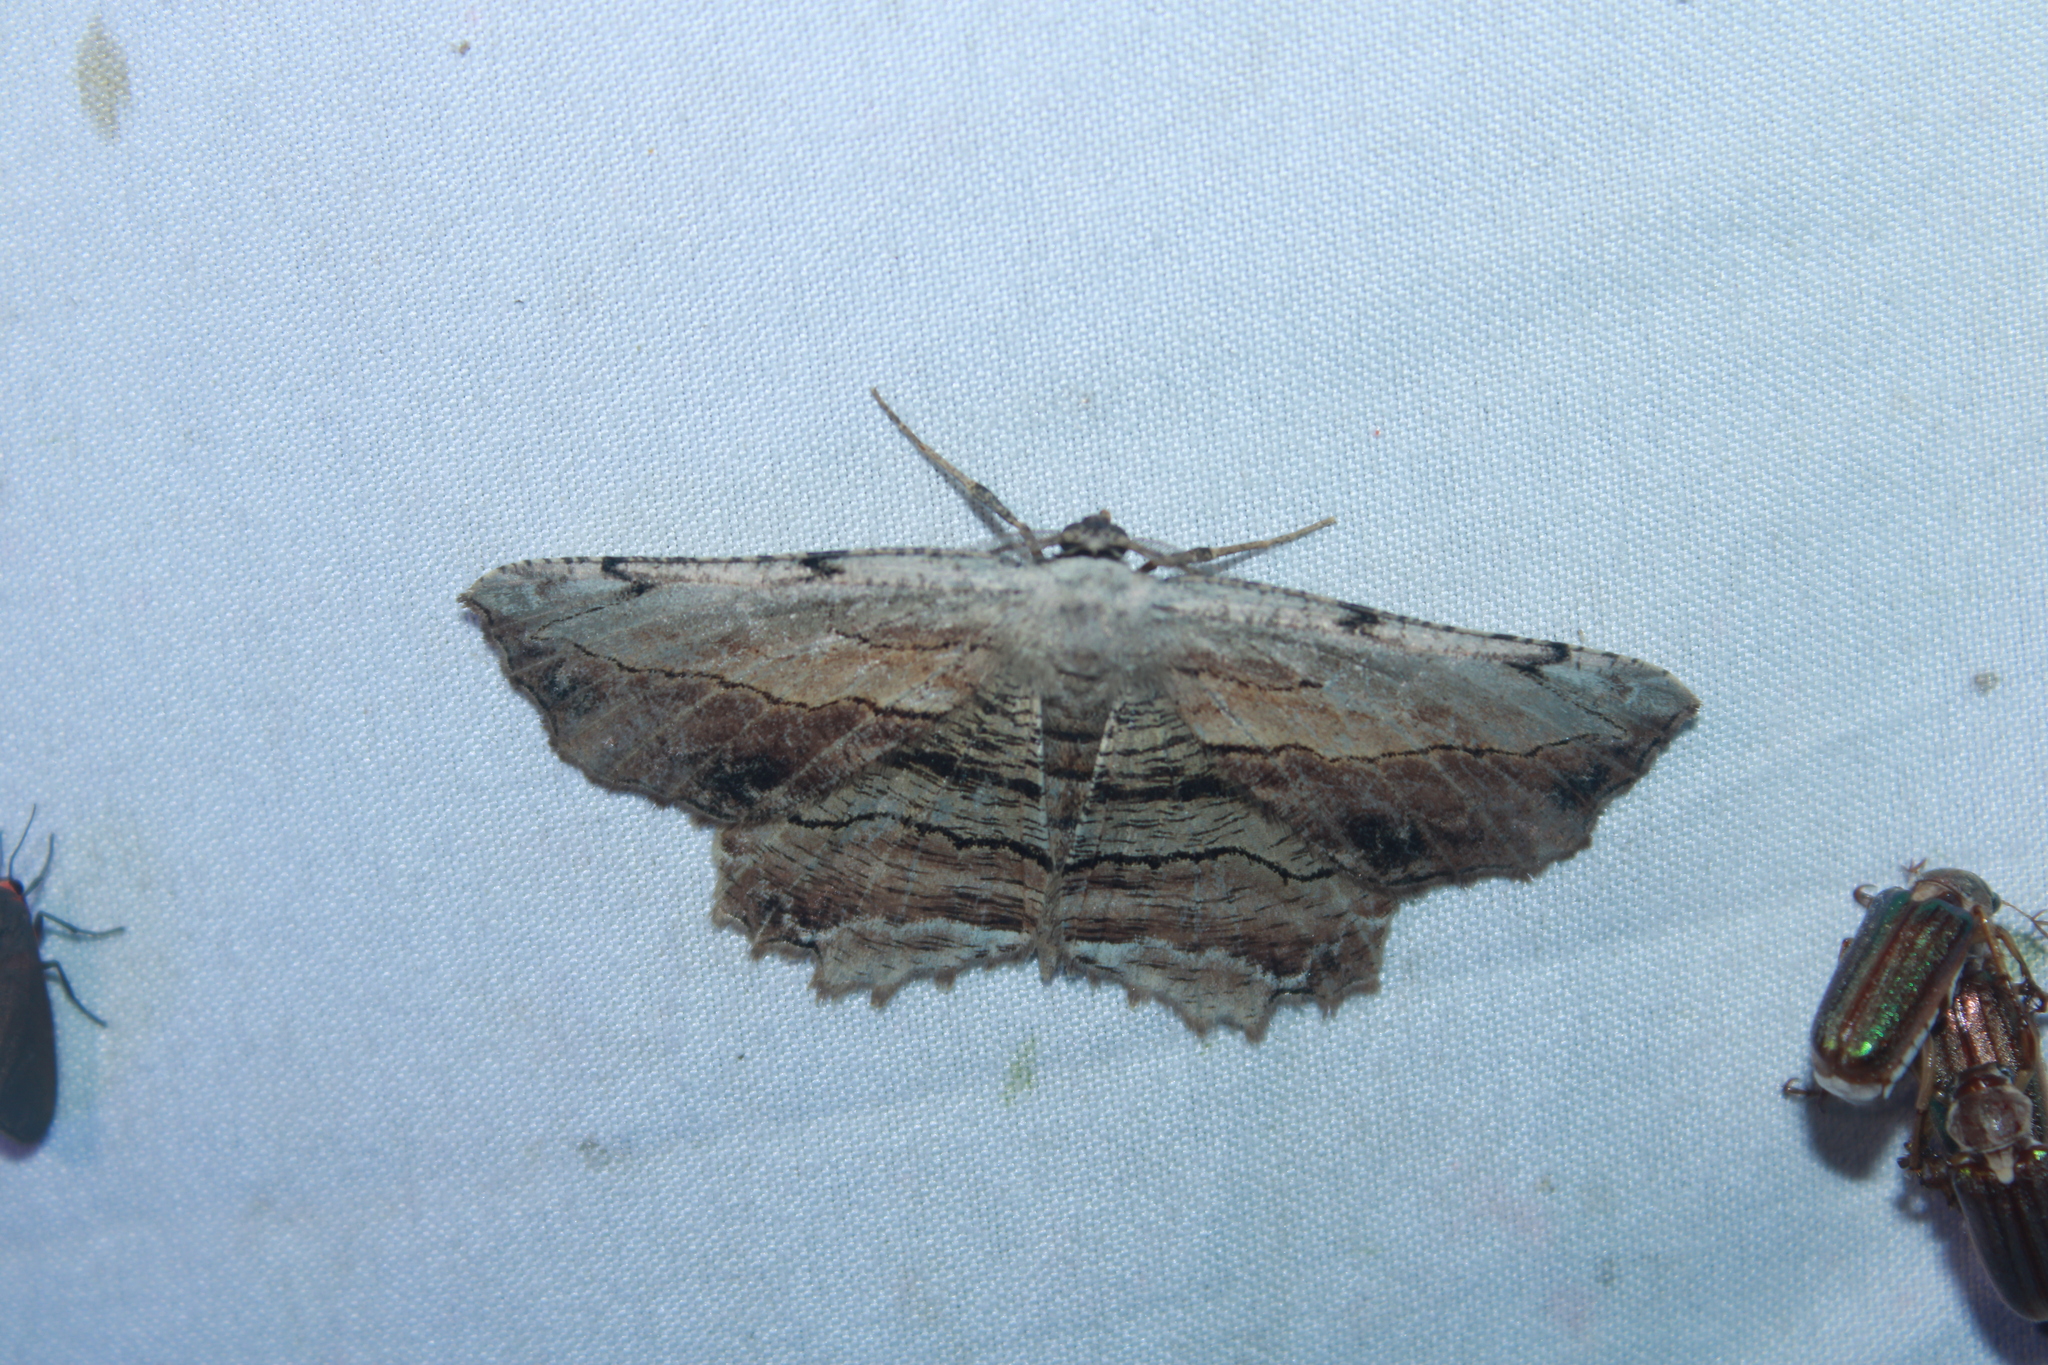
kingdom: Animalia
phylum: Arthropoda
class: Insecta
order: Lepidoptera
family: Geometridae
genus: Lytrosis
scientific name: Lytrosis unitaria
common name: Common lytrosis
